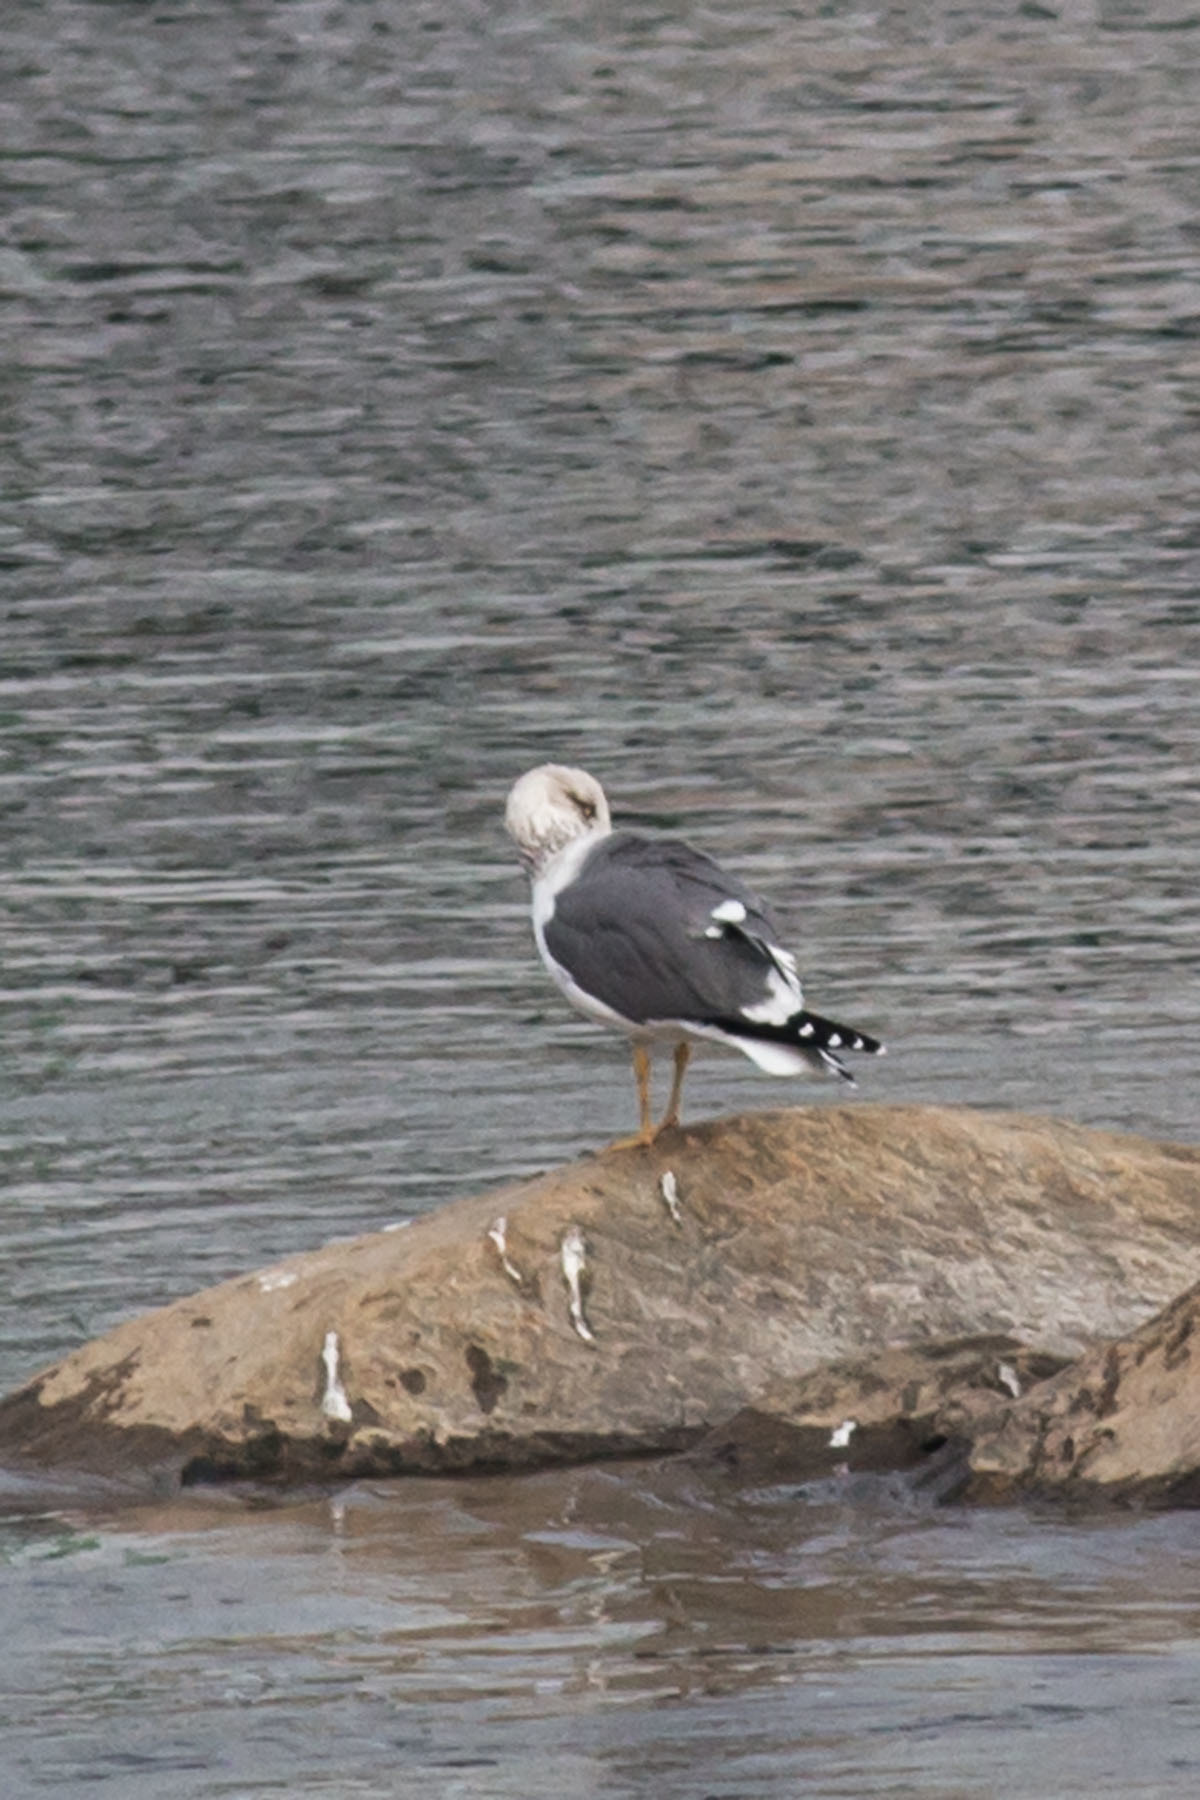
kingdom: Animalia
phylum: Chordata
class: Aves
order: Charadriiformes
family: Laridae
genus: Larus
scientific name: Larus fuscus
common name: Lesser black-backed gull
